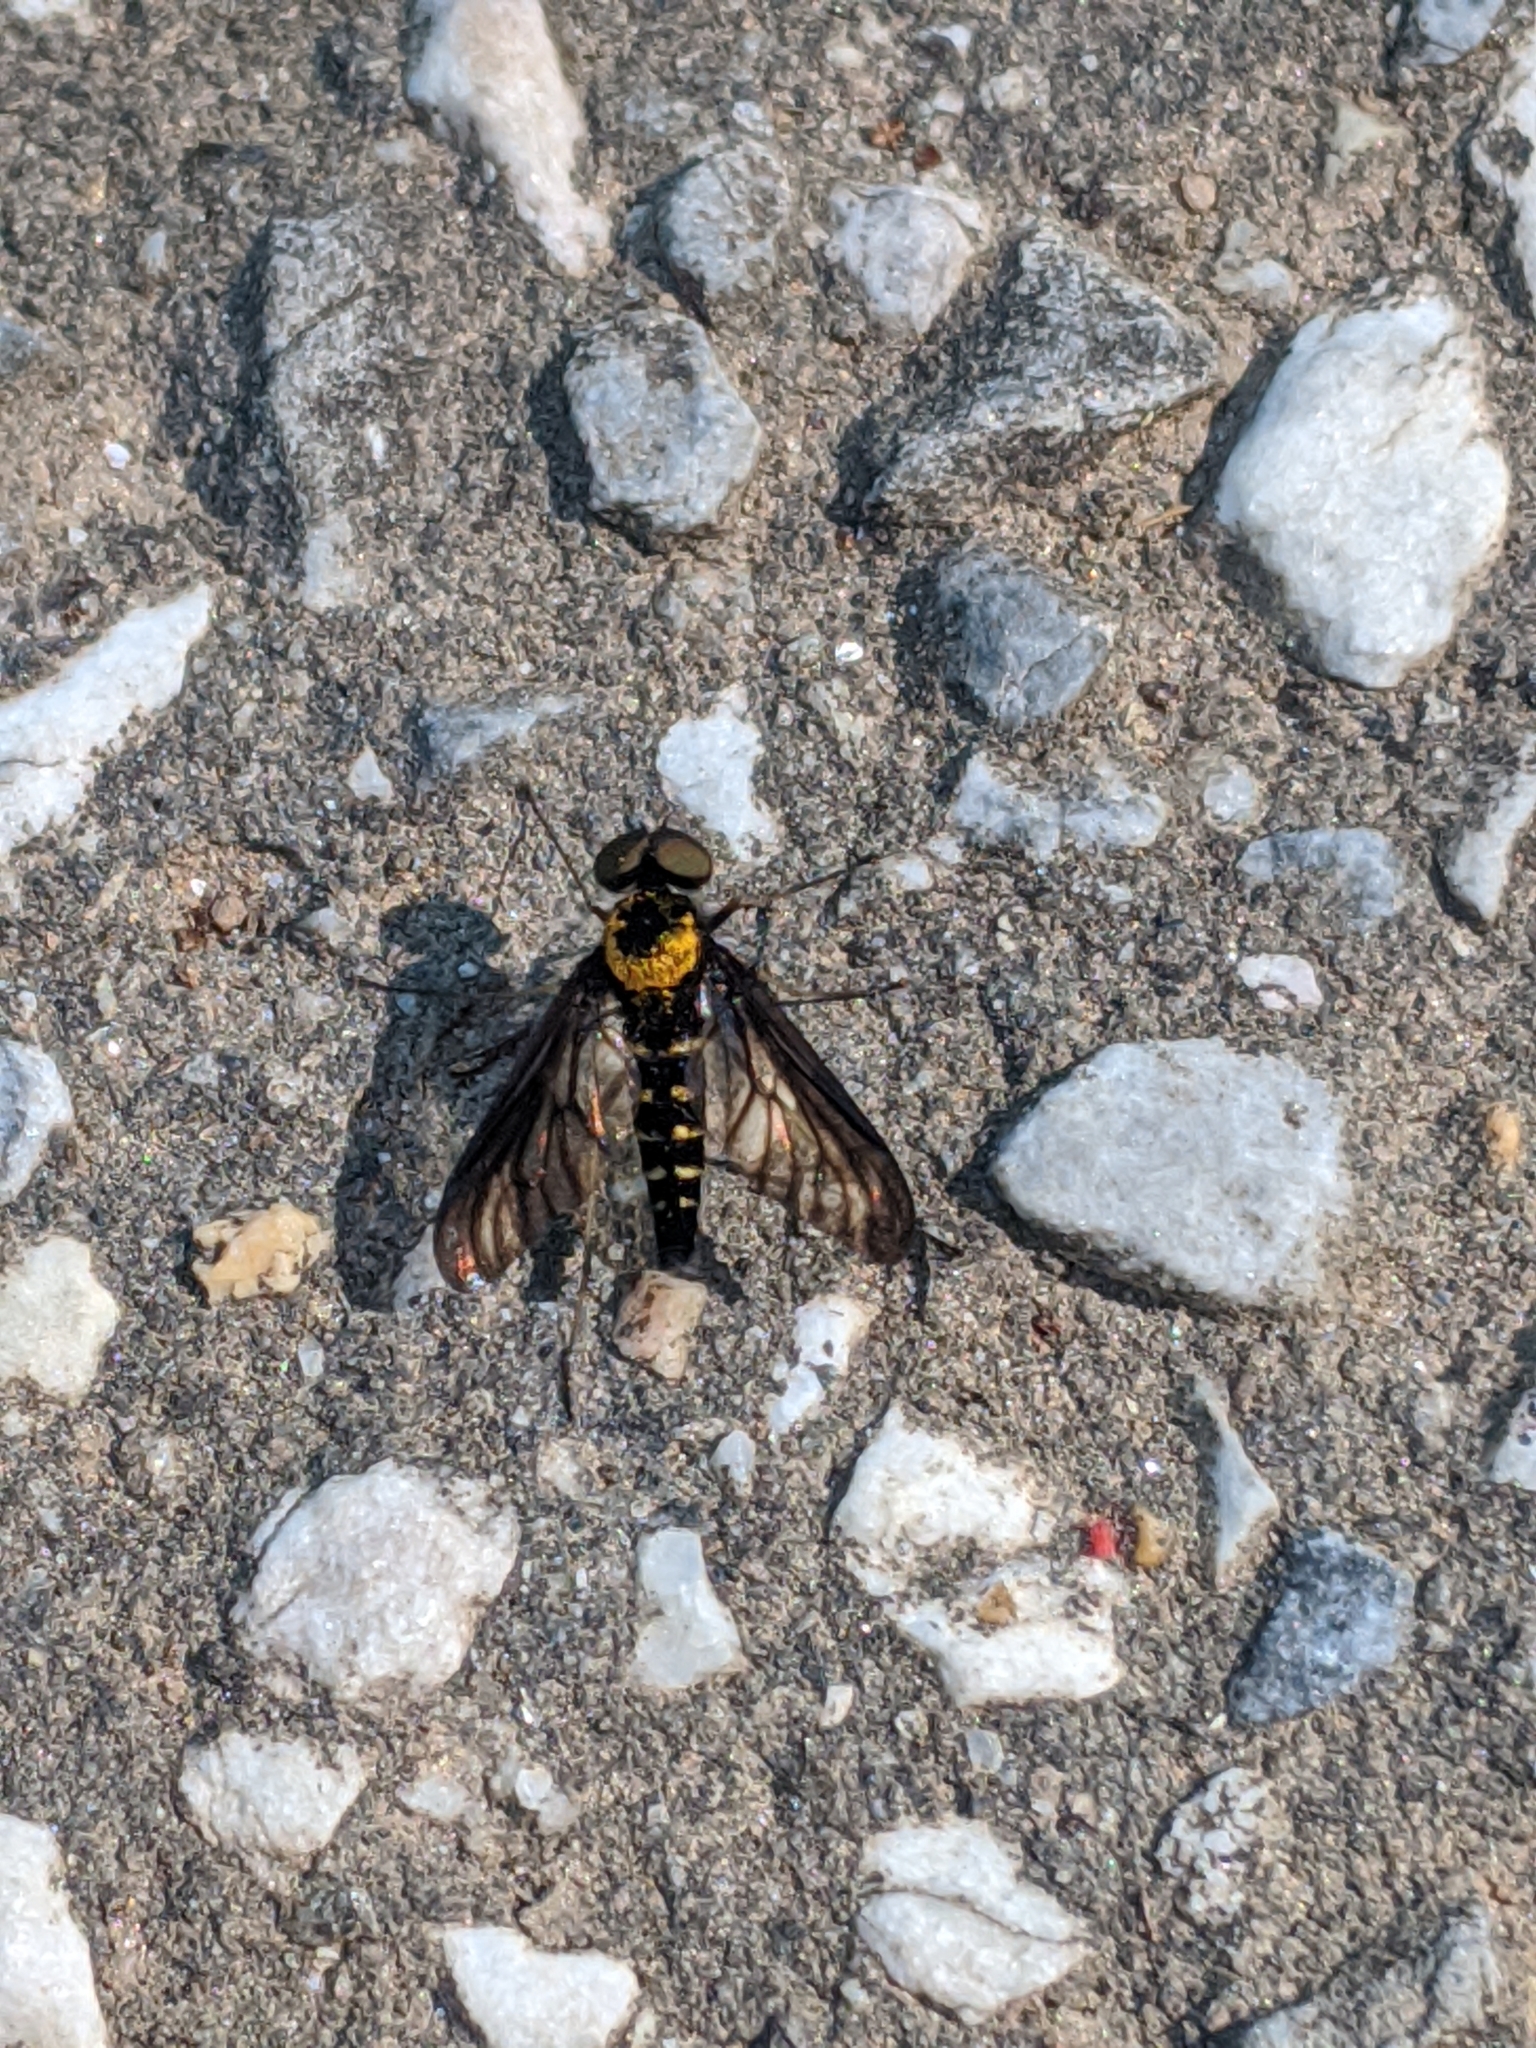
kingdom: Animalia
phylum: Arthropoda
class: Insecta
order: Diptera
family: Rhagionidae
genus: Chrysopilus
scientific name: Chrysopilus thoracicus
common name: Golden-backed snipe fly
